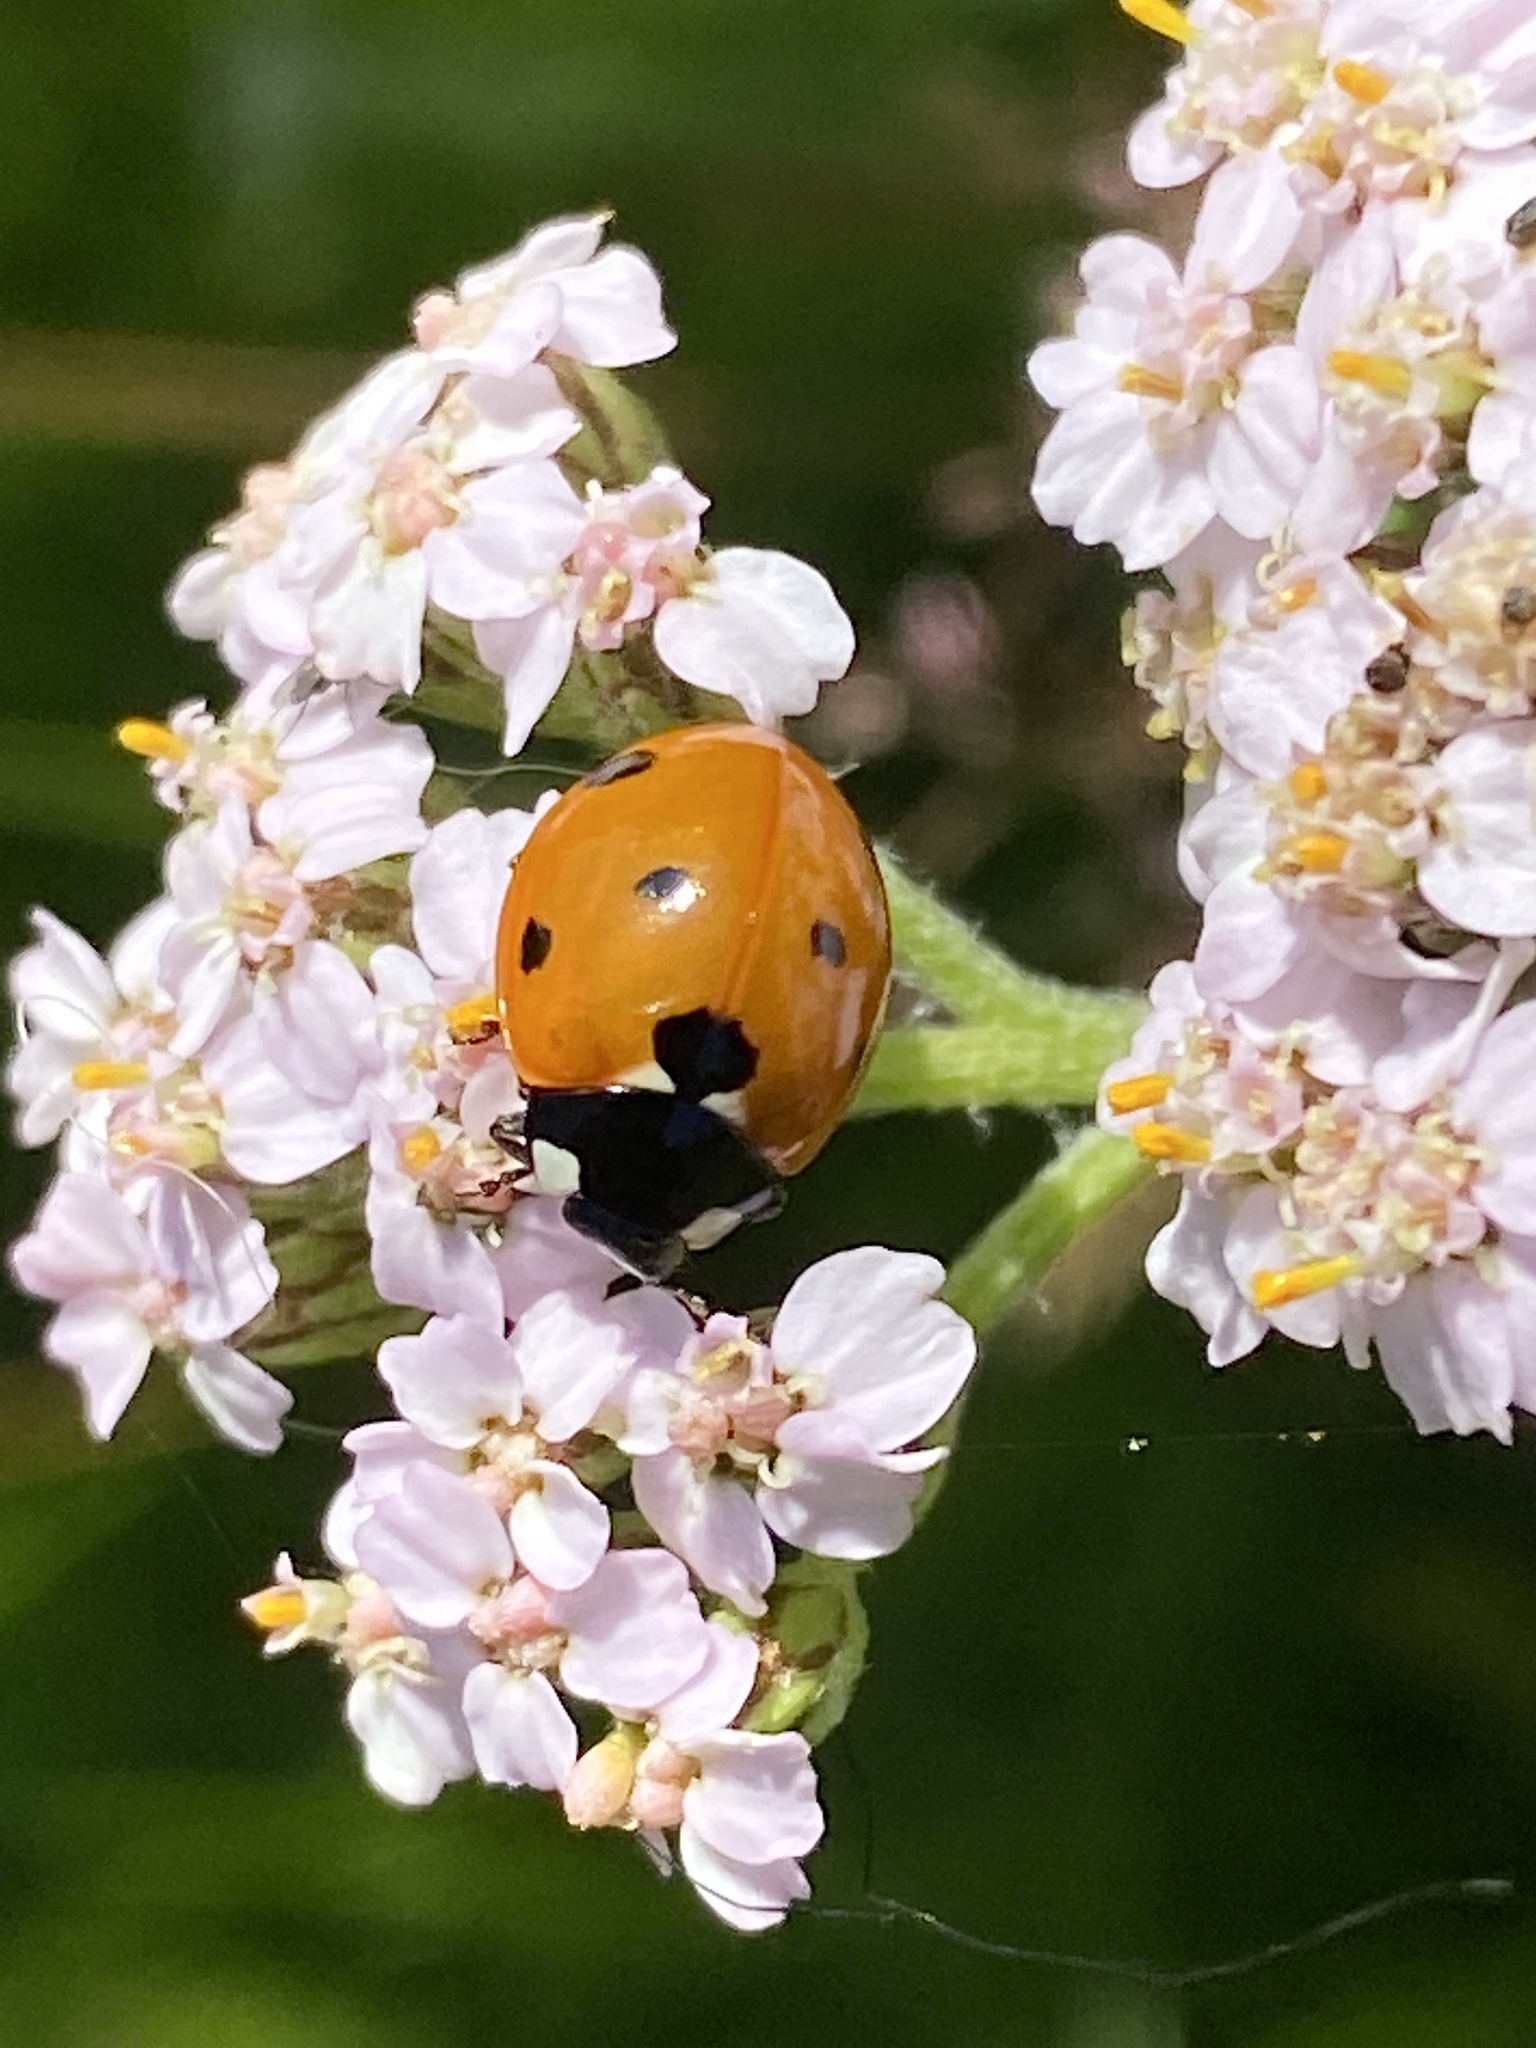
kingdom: Animalia
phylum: Arthropoda
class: Insecta
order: Coleoptera
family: Coccinellidae
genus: Coccinella
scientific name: Coccinella septempunctata
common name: Sevenspotted lady beetle
